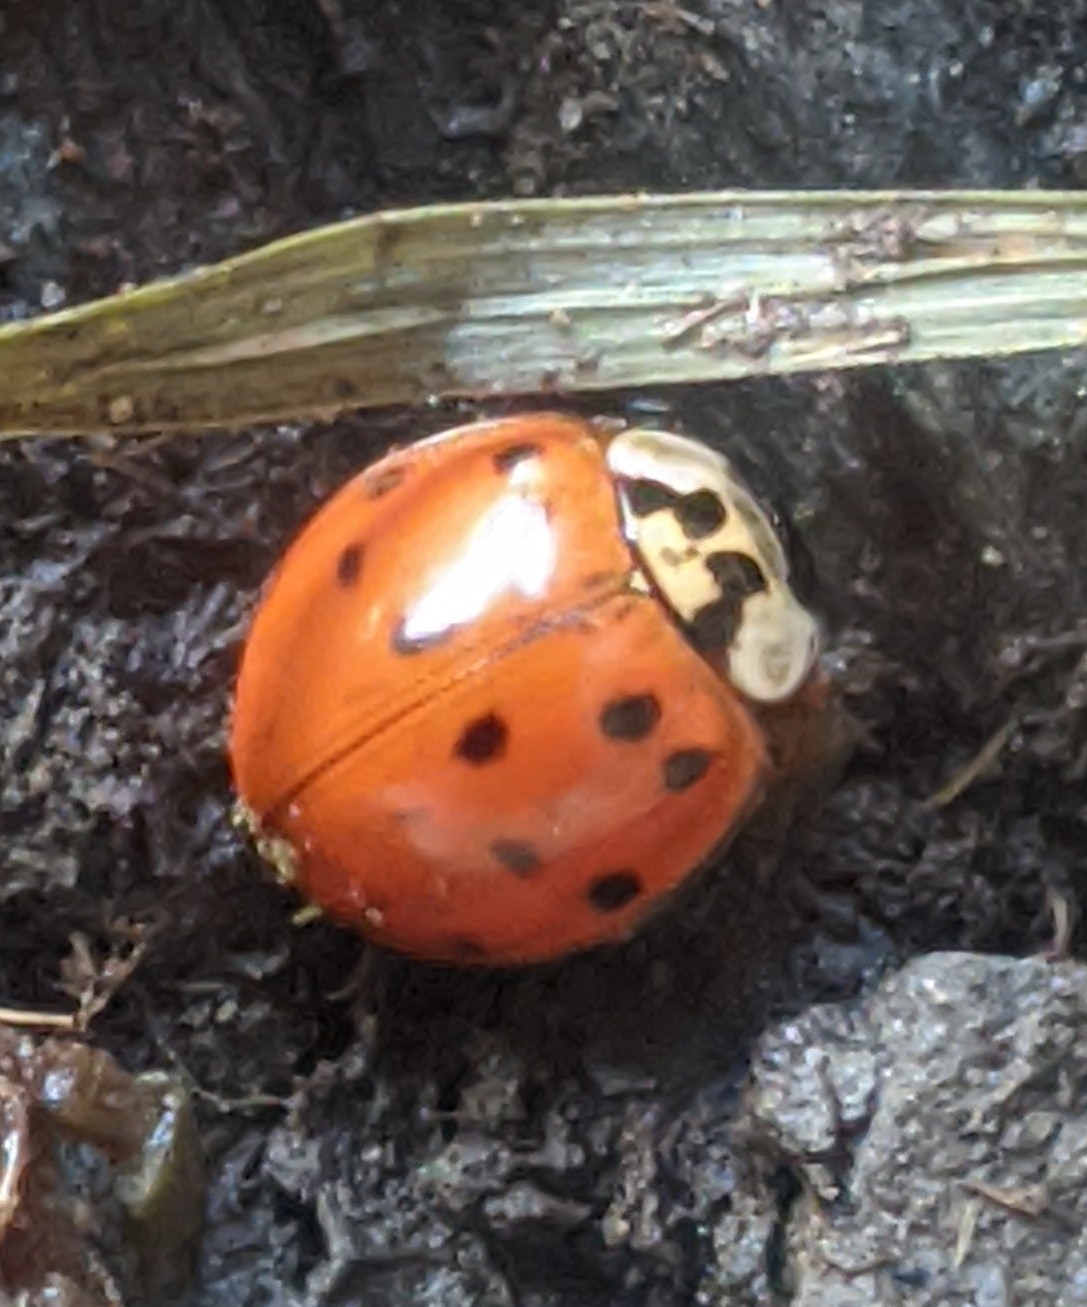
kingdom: Animalia
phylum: Arthropoda
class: Insecta
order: Coleoptera
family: Coccinellidae
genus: Harmonia
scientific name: Harmonia axyridis
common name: Harlequin ladybird
